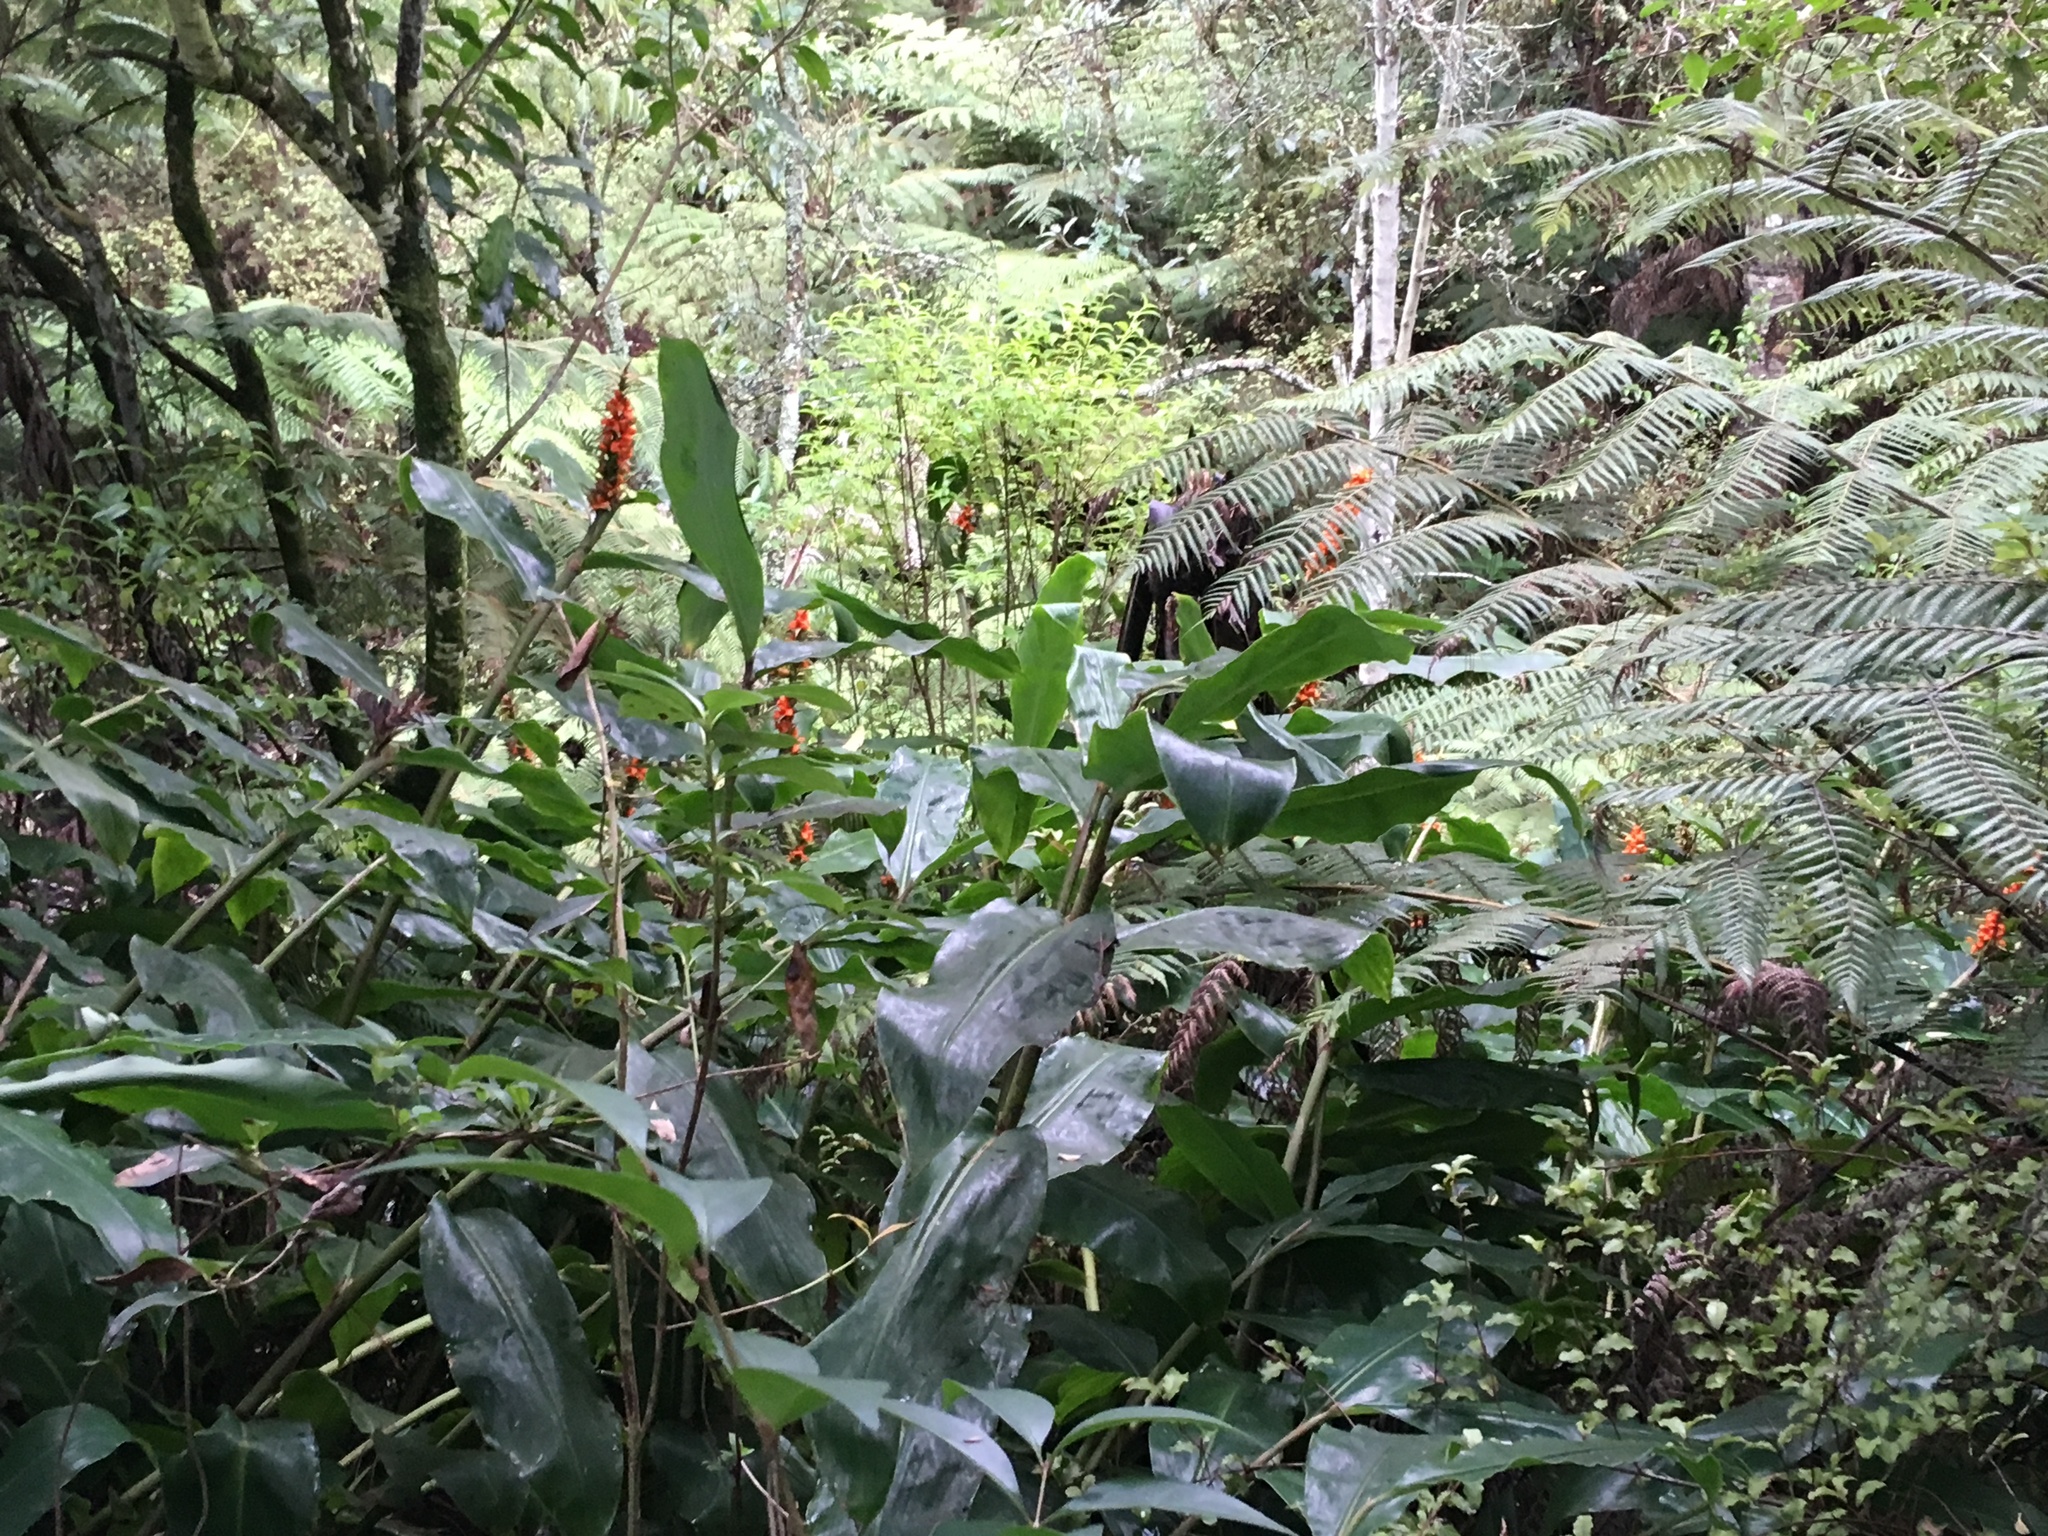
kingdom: Plantae
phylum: Tracheophyta
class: Liliopsida
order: Zingiberales
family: Zingiberaceae
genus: Hedychium
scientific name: Hedychium gardnerianum
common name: Himalayan ginger
